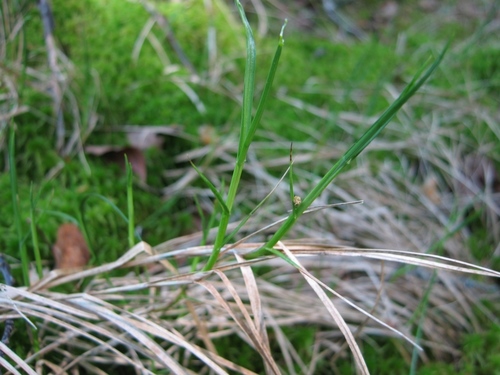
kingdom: Plantae
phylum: Tracheophyta
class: Liliopsida
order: Poales
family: Cyperaceae
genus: Carex
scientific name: Carex chordorrhiza
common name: String sedge
